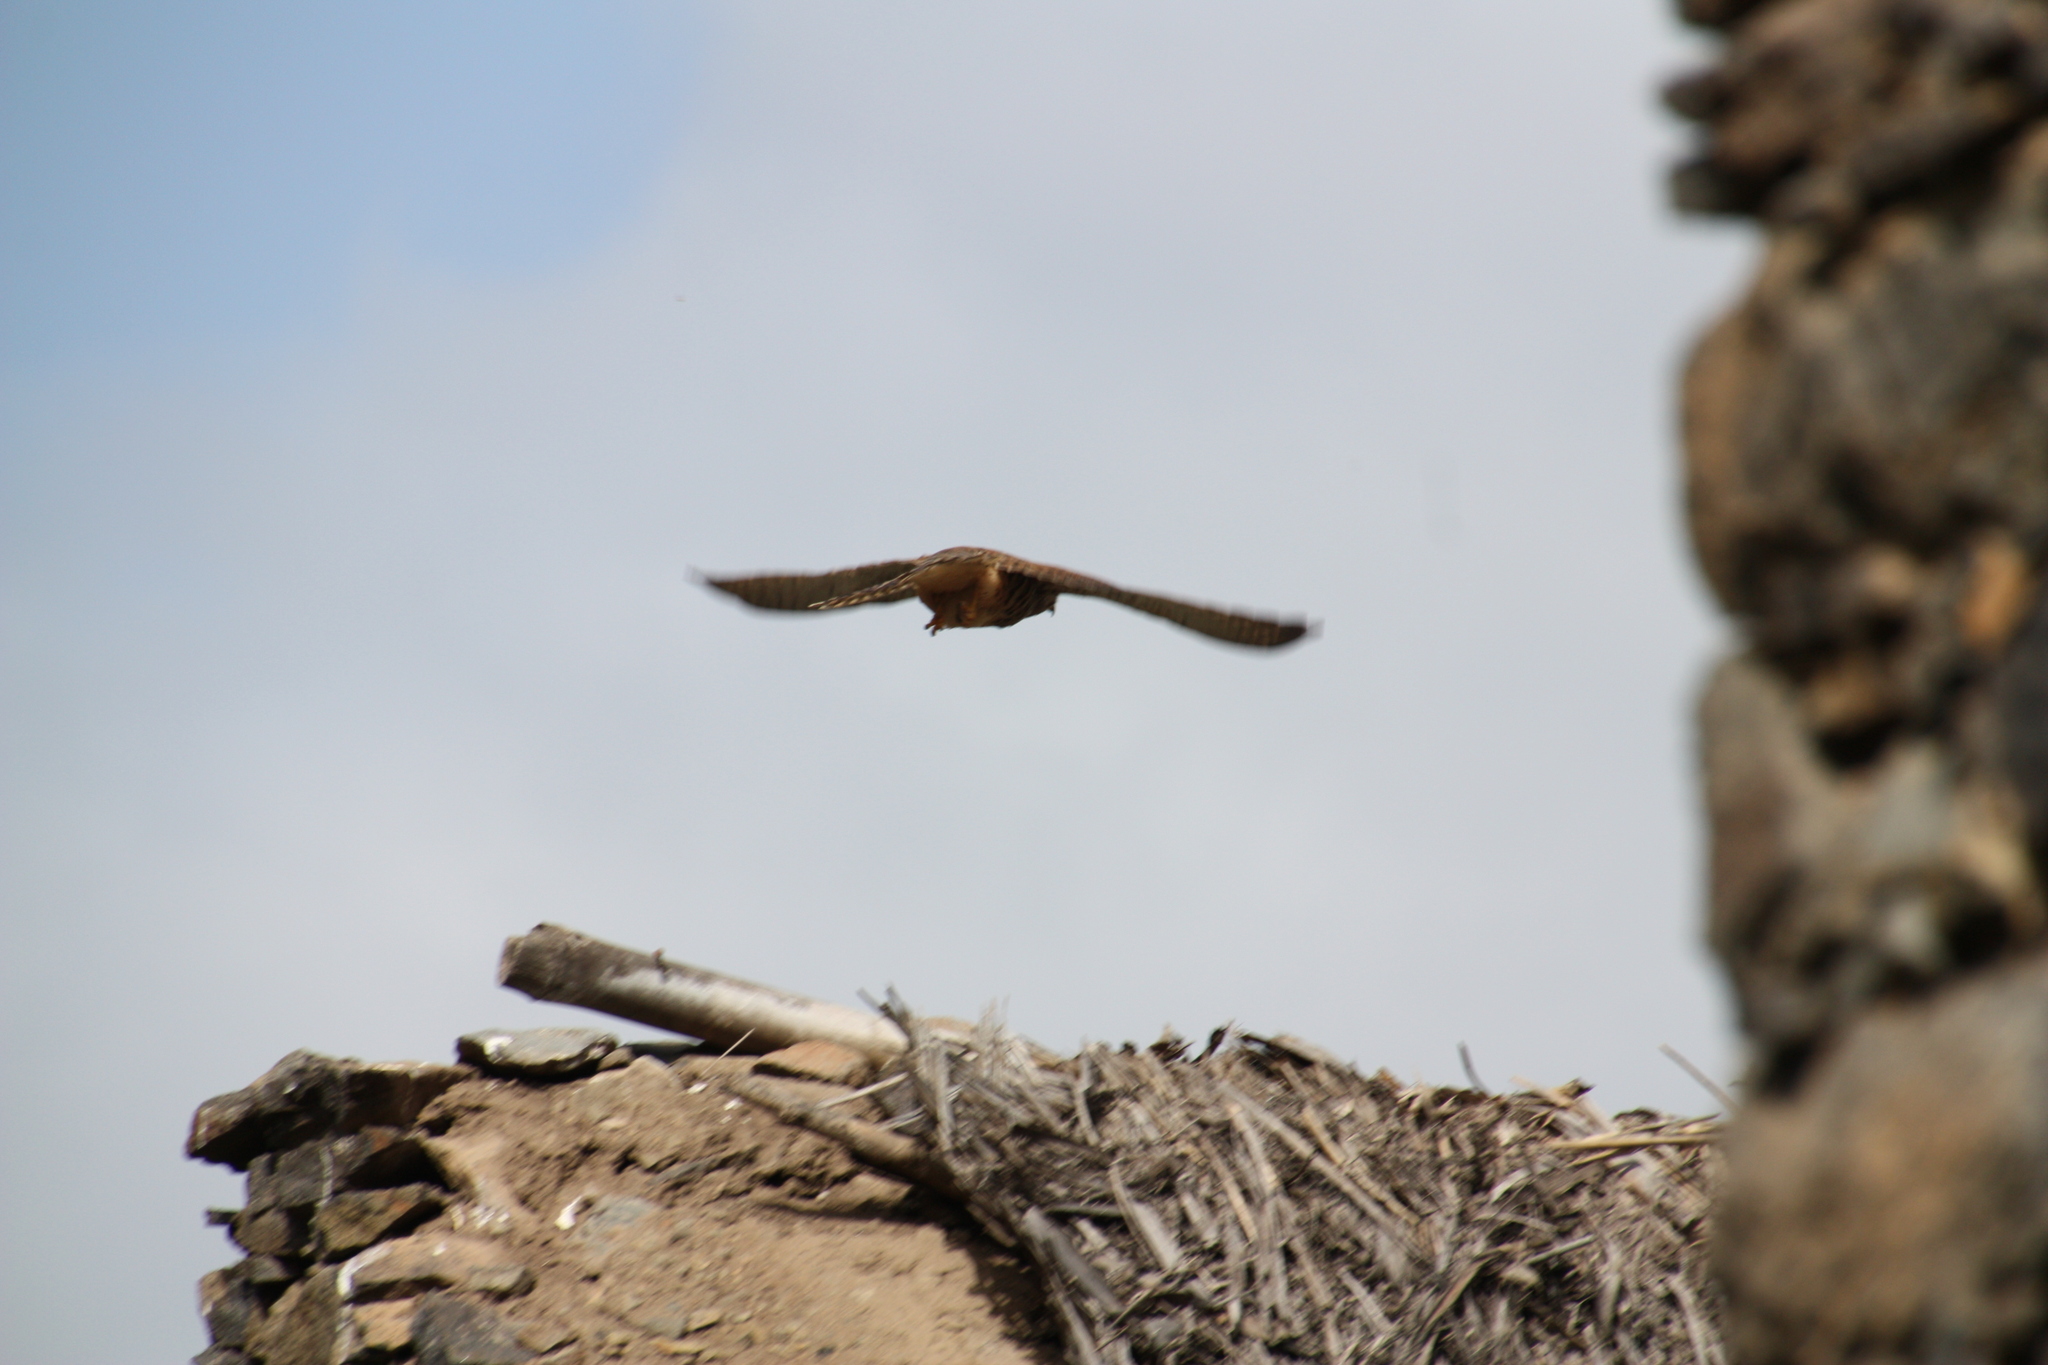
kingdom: Animalia
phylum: Chordata
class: Aves
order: Falconiformes
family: Falconidae
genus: Falco
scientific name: Falco tinnunculus
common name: Common kestrel
